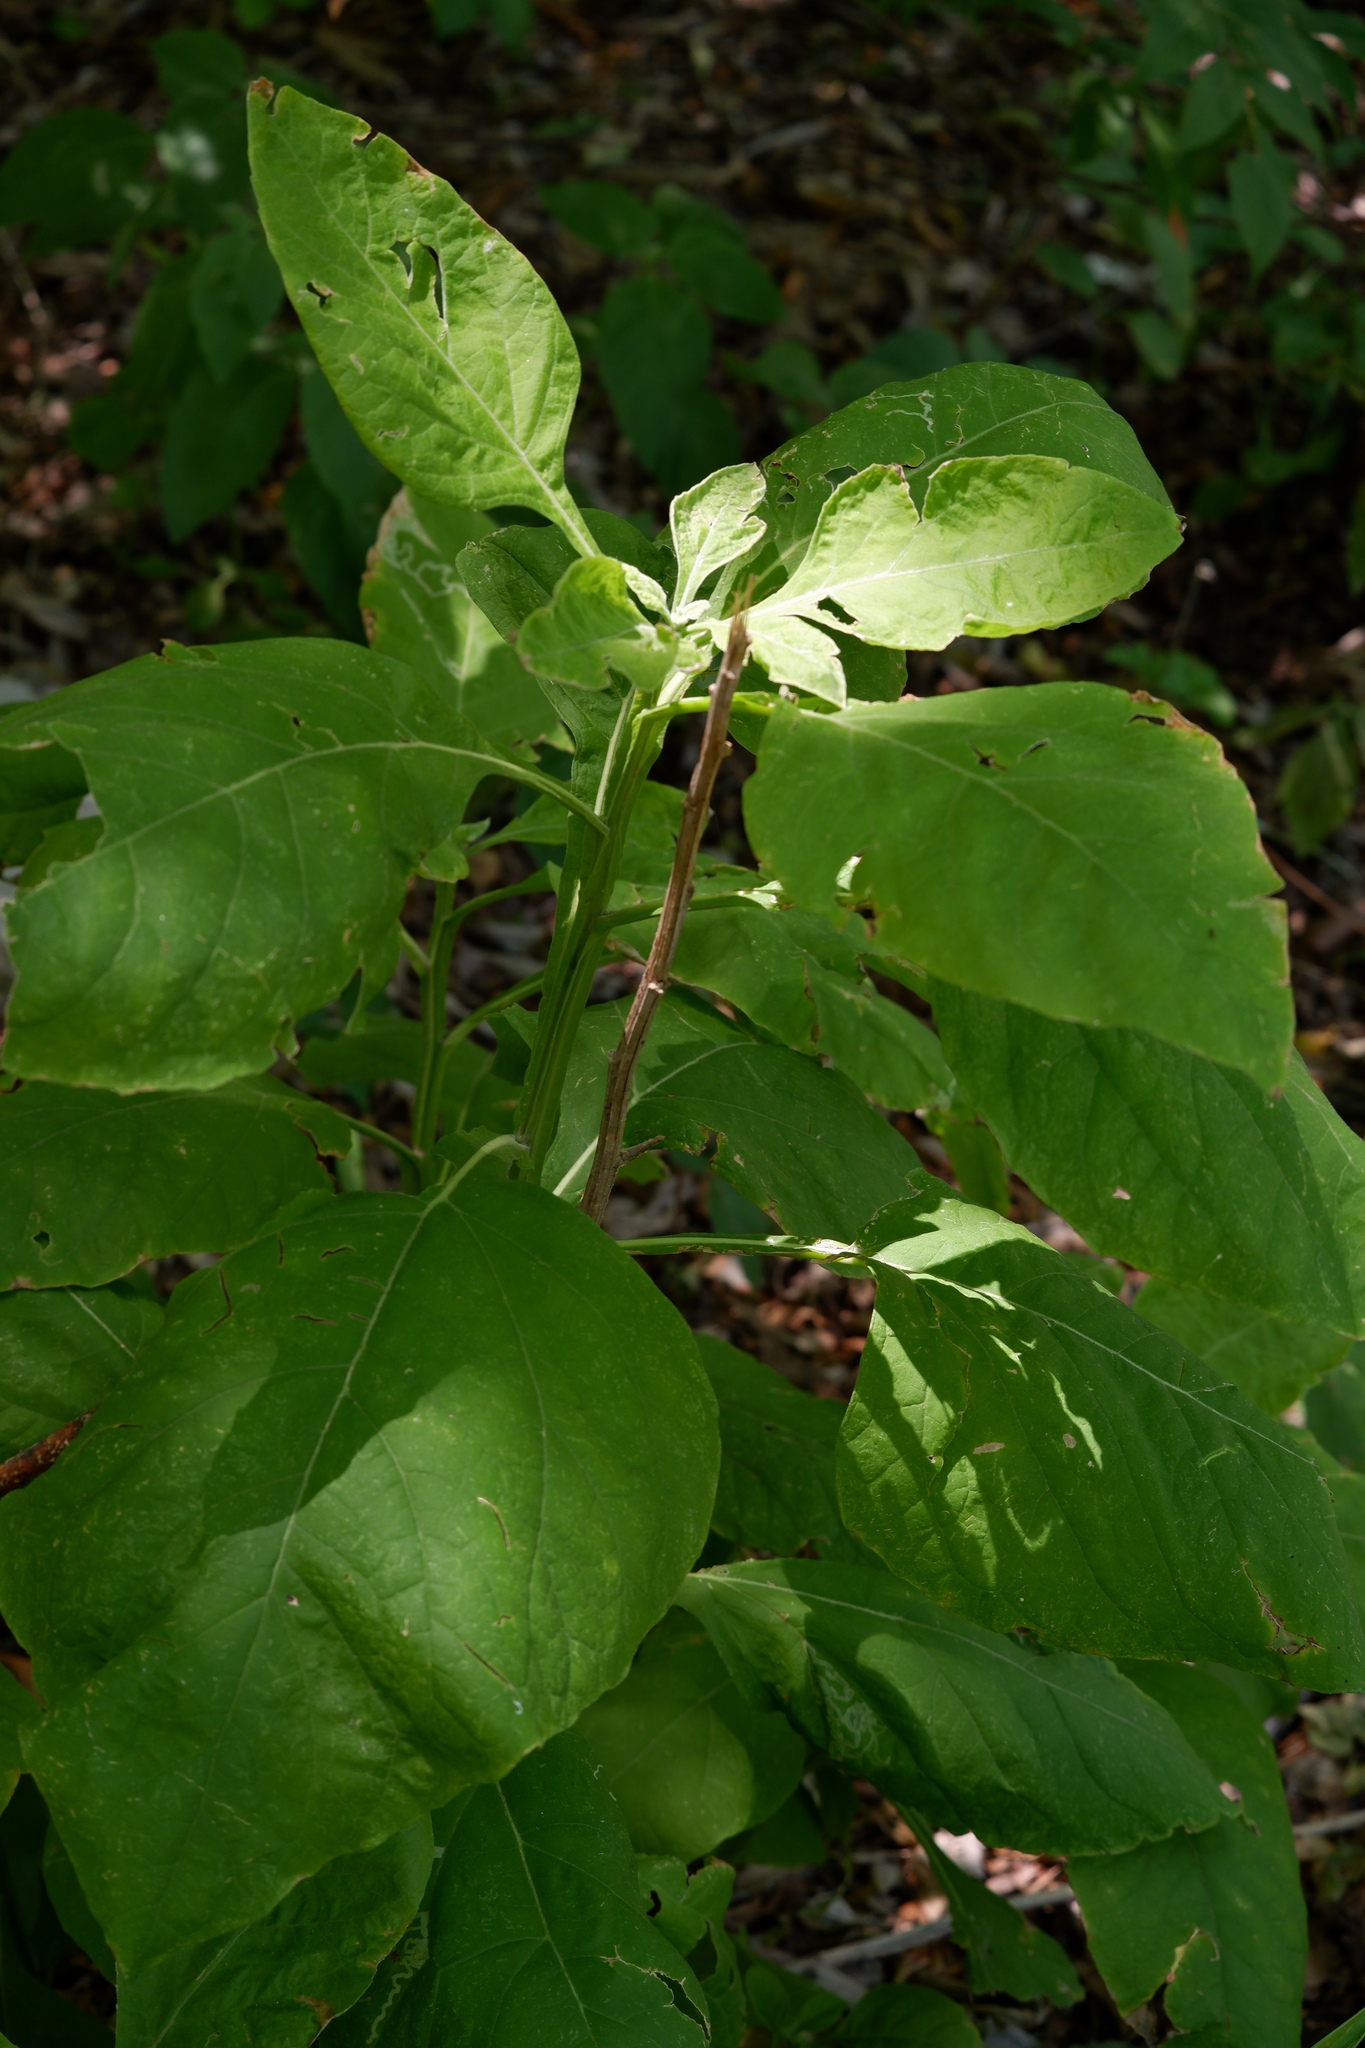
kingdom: Plantae
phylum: Tracheophyta
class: Magnoliopsida
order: Asterales
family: Asteraceae
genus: Verbesina
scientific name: Verbesina virginica
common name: Frostweed
